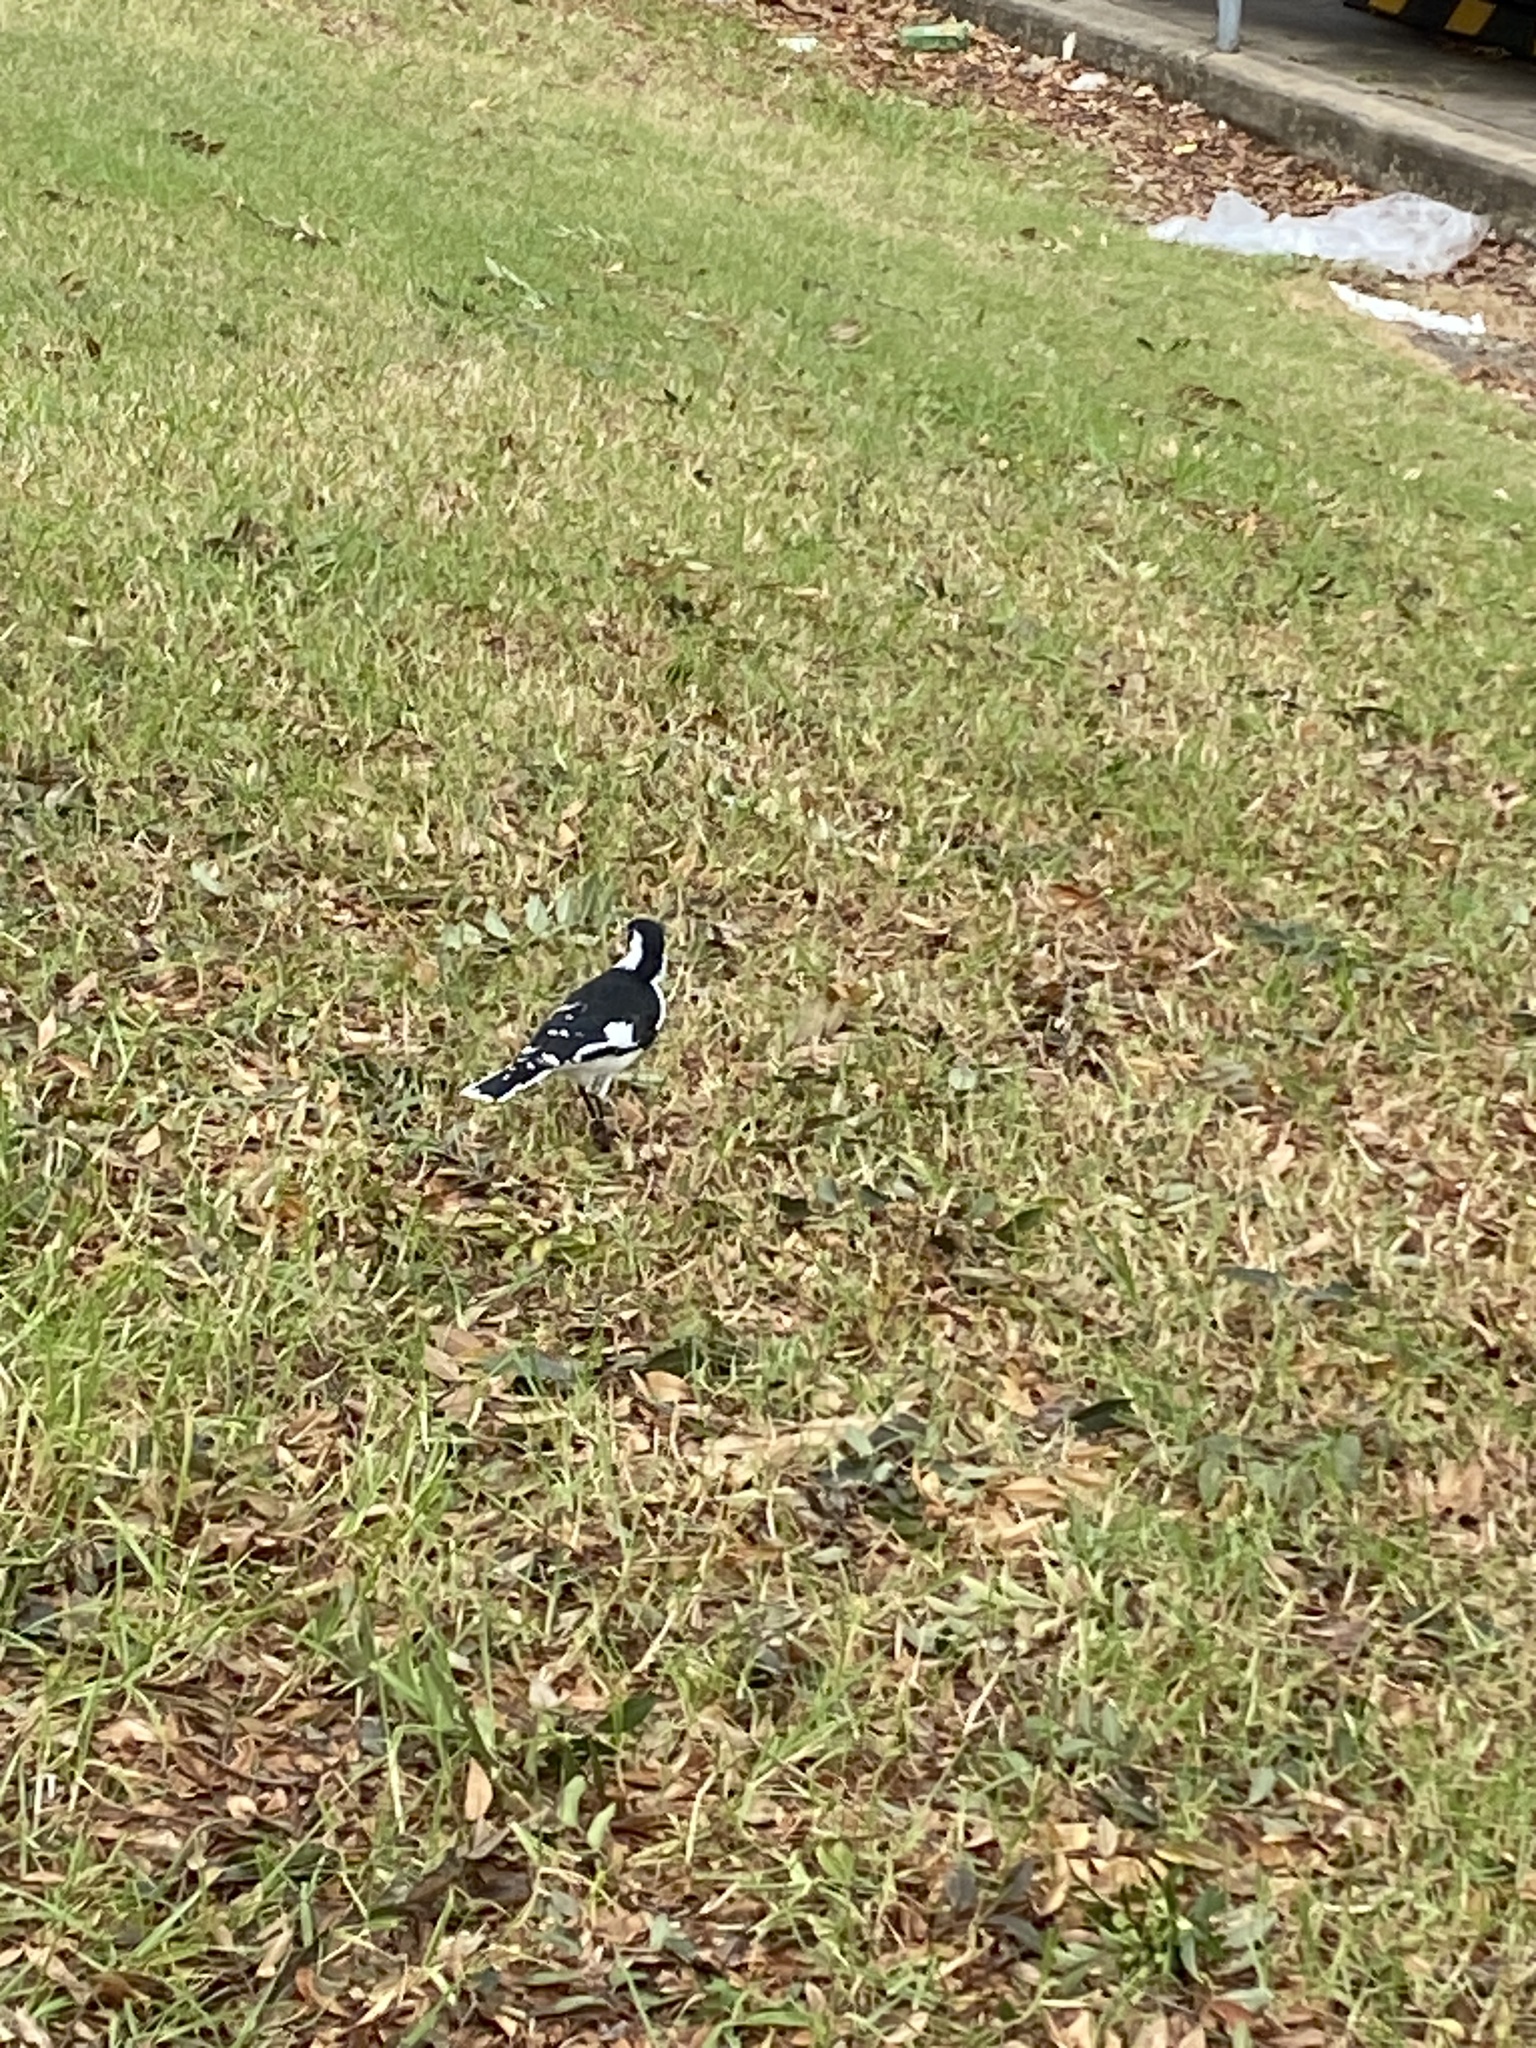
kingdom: Animalia
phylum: Chordata
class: Aves
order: Passeriformes
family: Monarchidae
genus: Grallina
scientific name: Grallina cyanoleuca
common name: Magpie-lark
